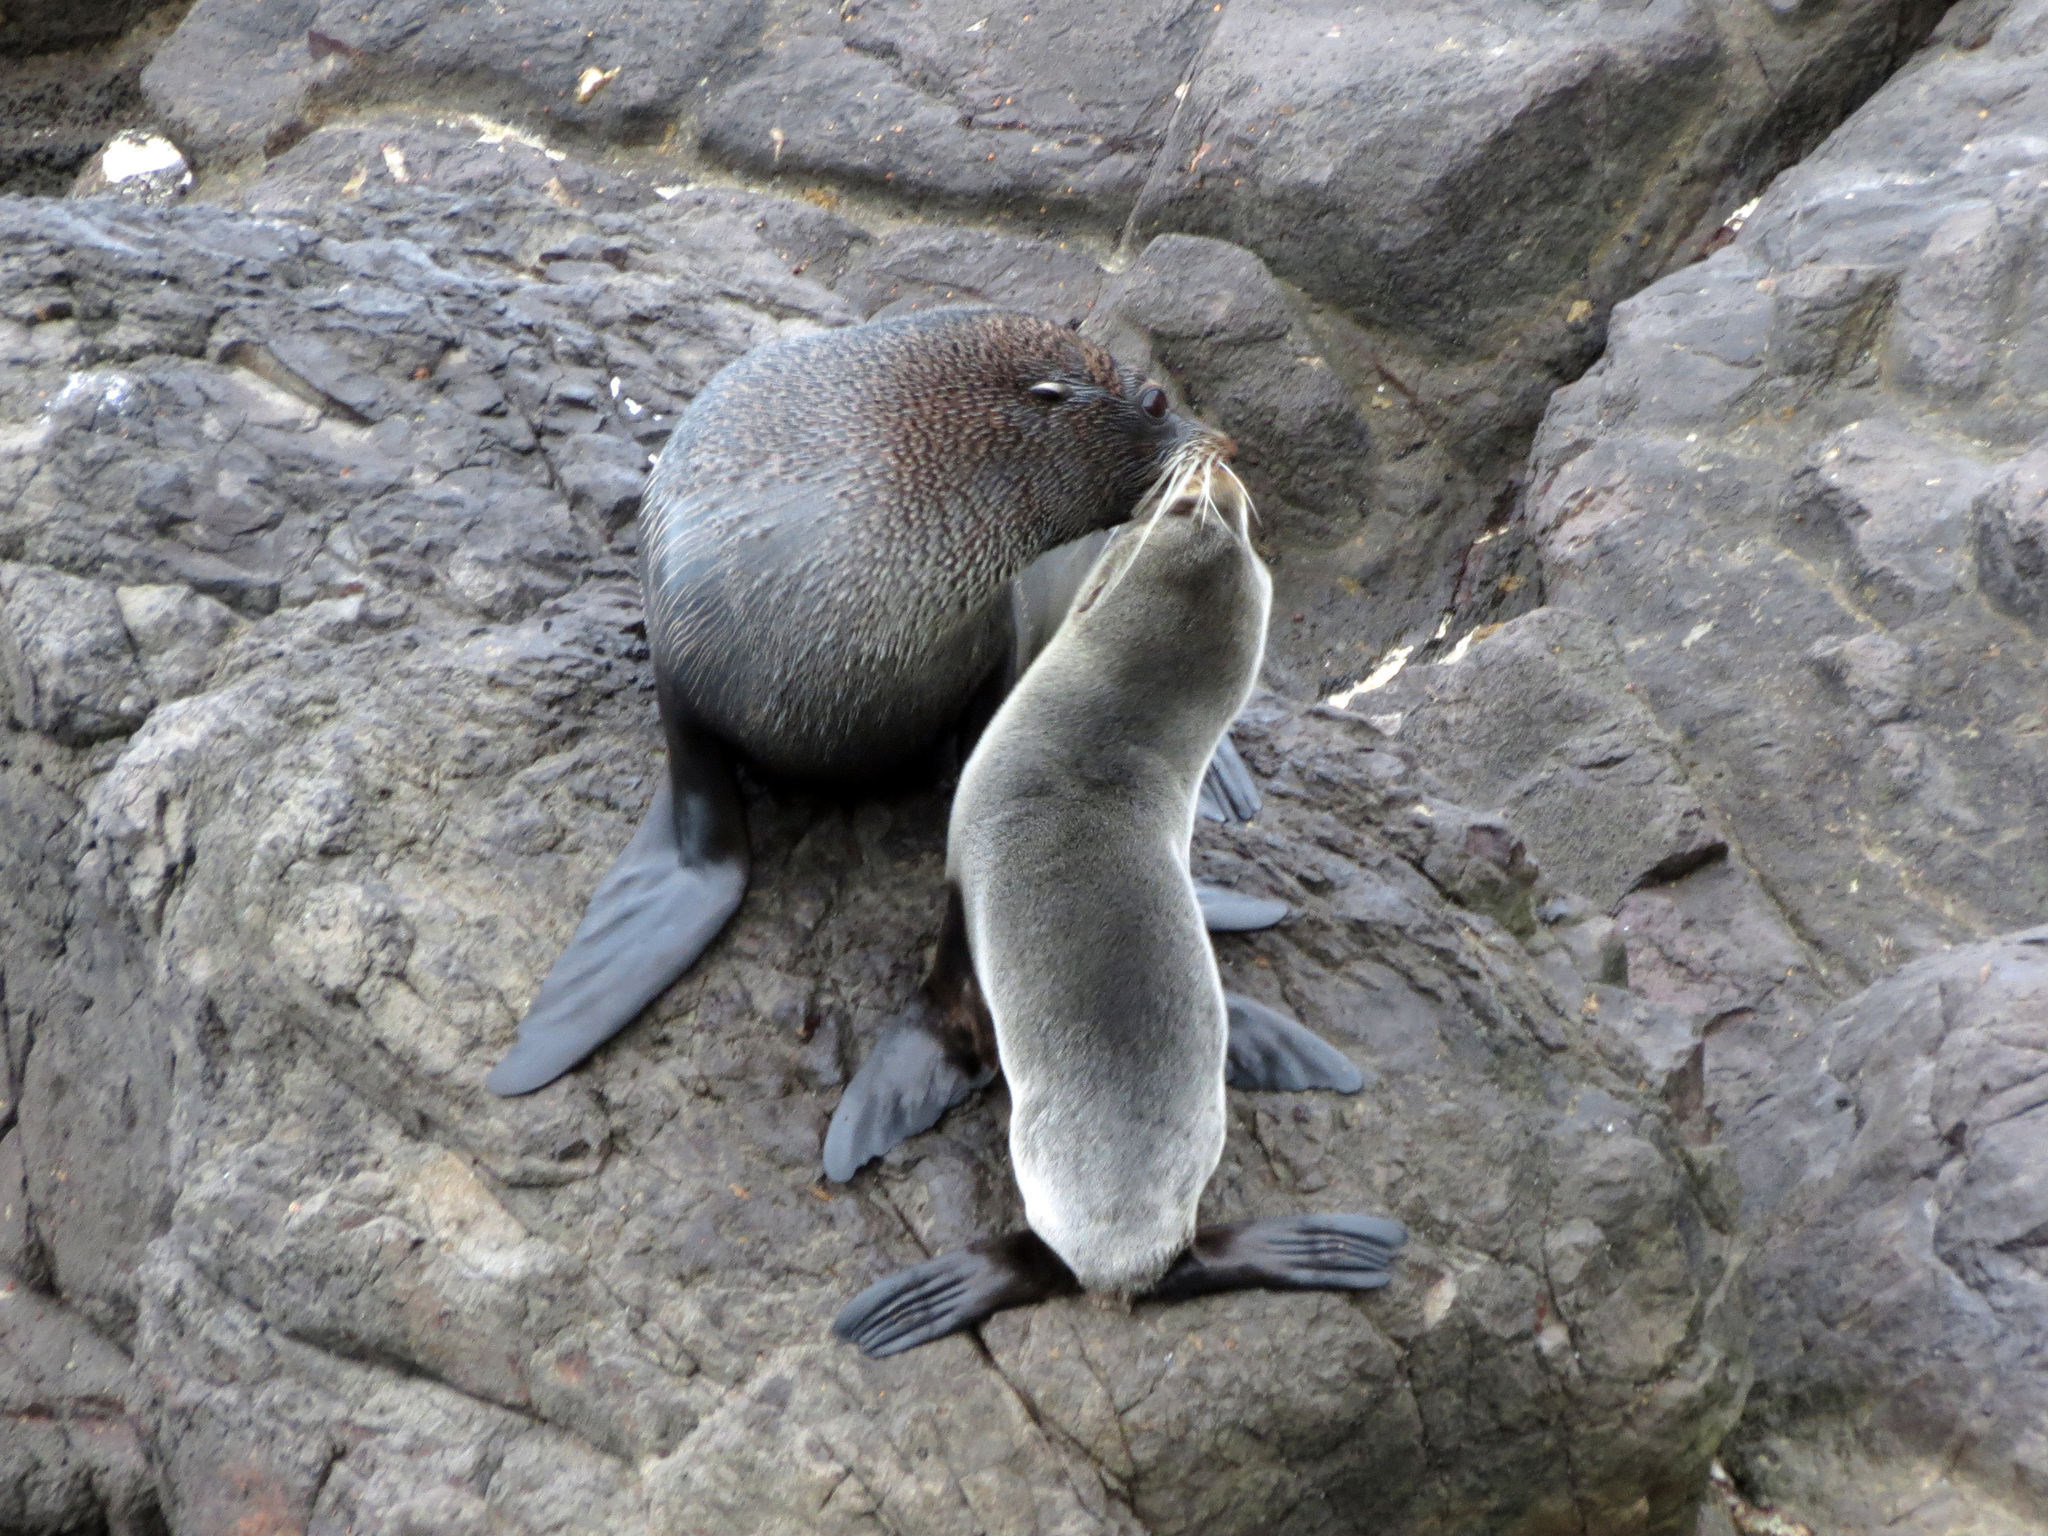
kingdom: Animalia
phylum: Chordata
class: Mammalia
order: Carnivora
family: Otariidae
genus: Arctocephalus
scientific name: Arctocephalus forsteri
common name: New zealand fur seal
